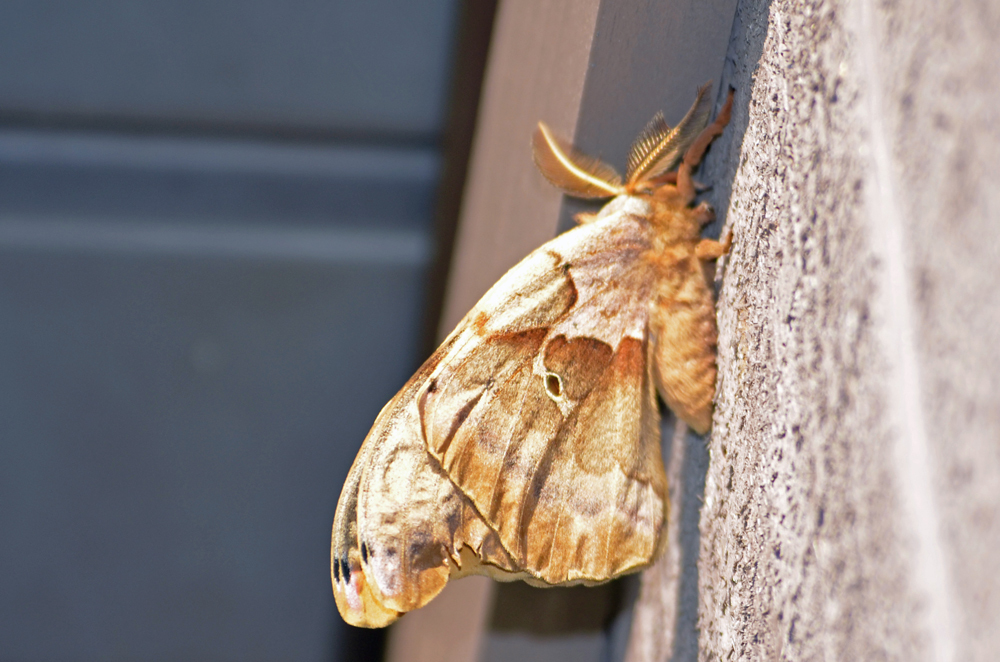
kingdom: Animalia
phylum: Arthropoda
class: Insecta
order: Lepidoptera
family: Saturniidae
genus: Antheraea
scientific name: Antheraea polyphemus
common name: Polyphemus moth
